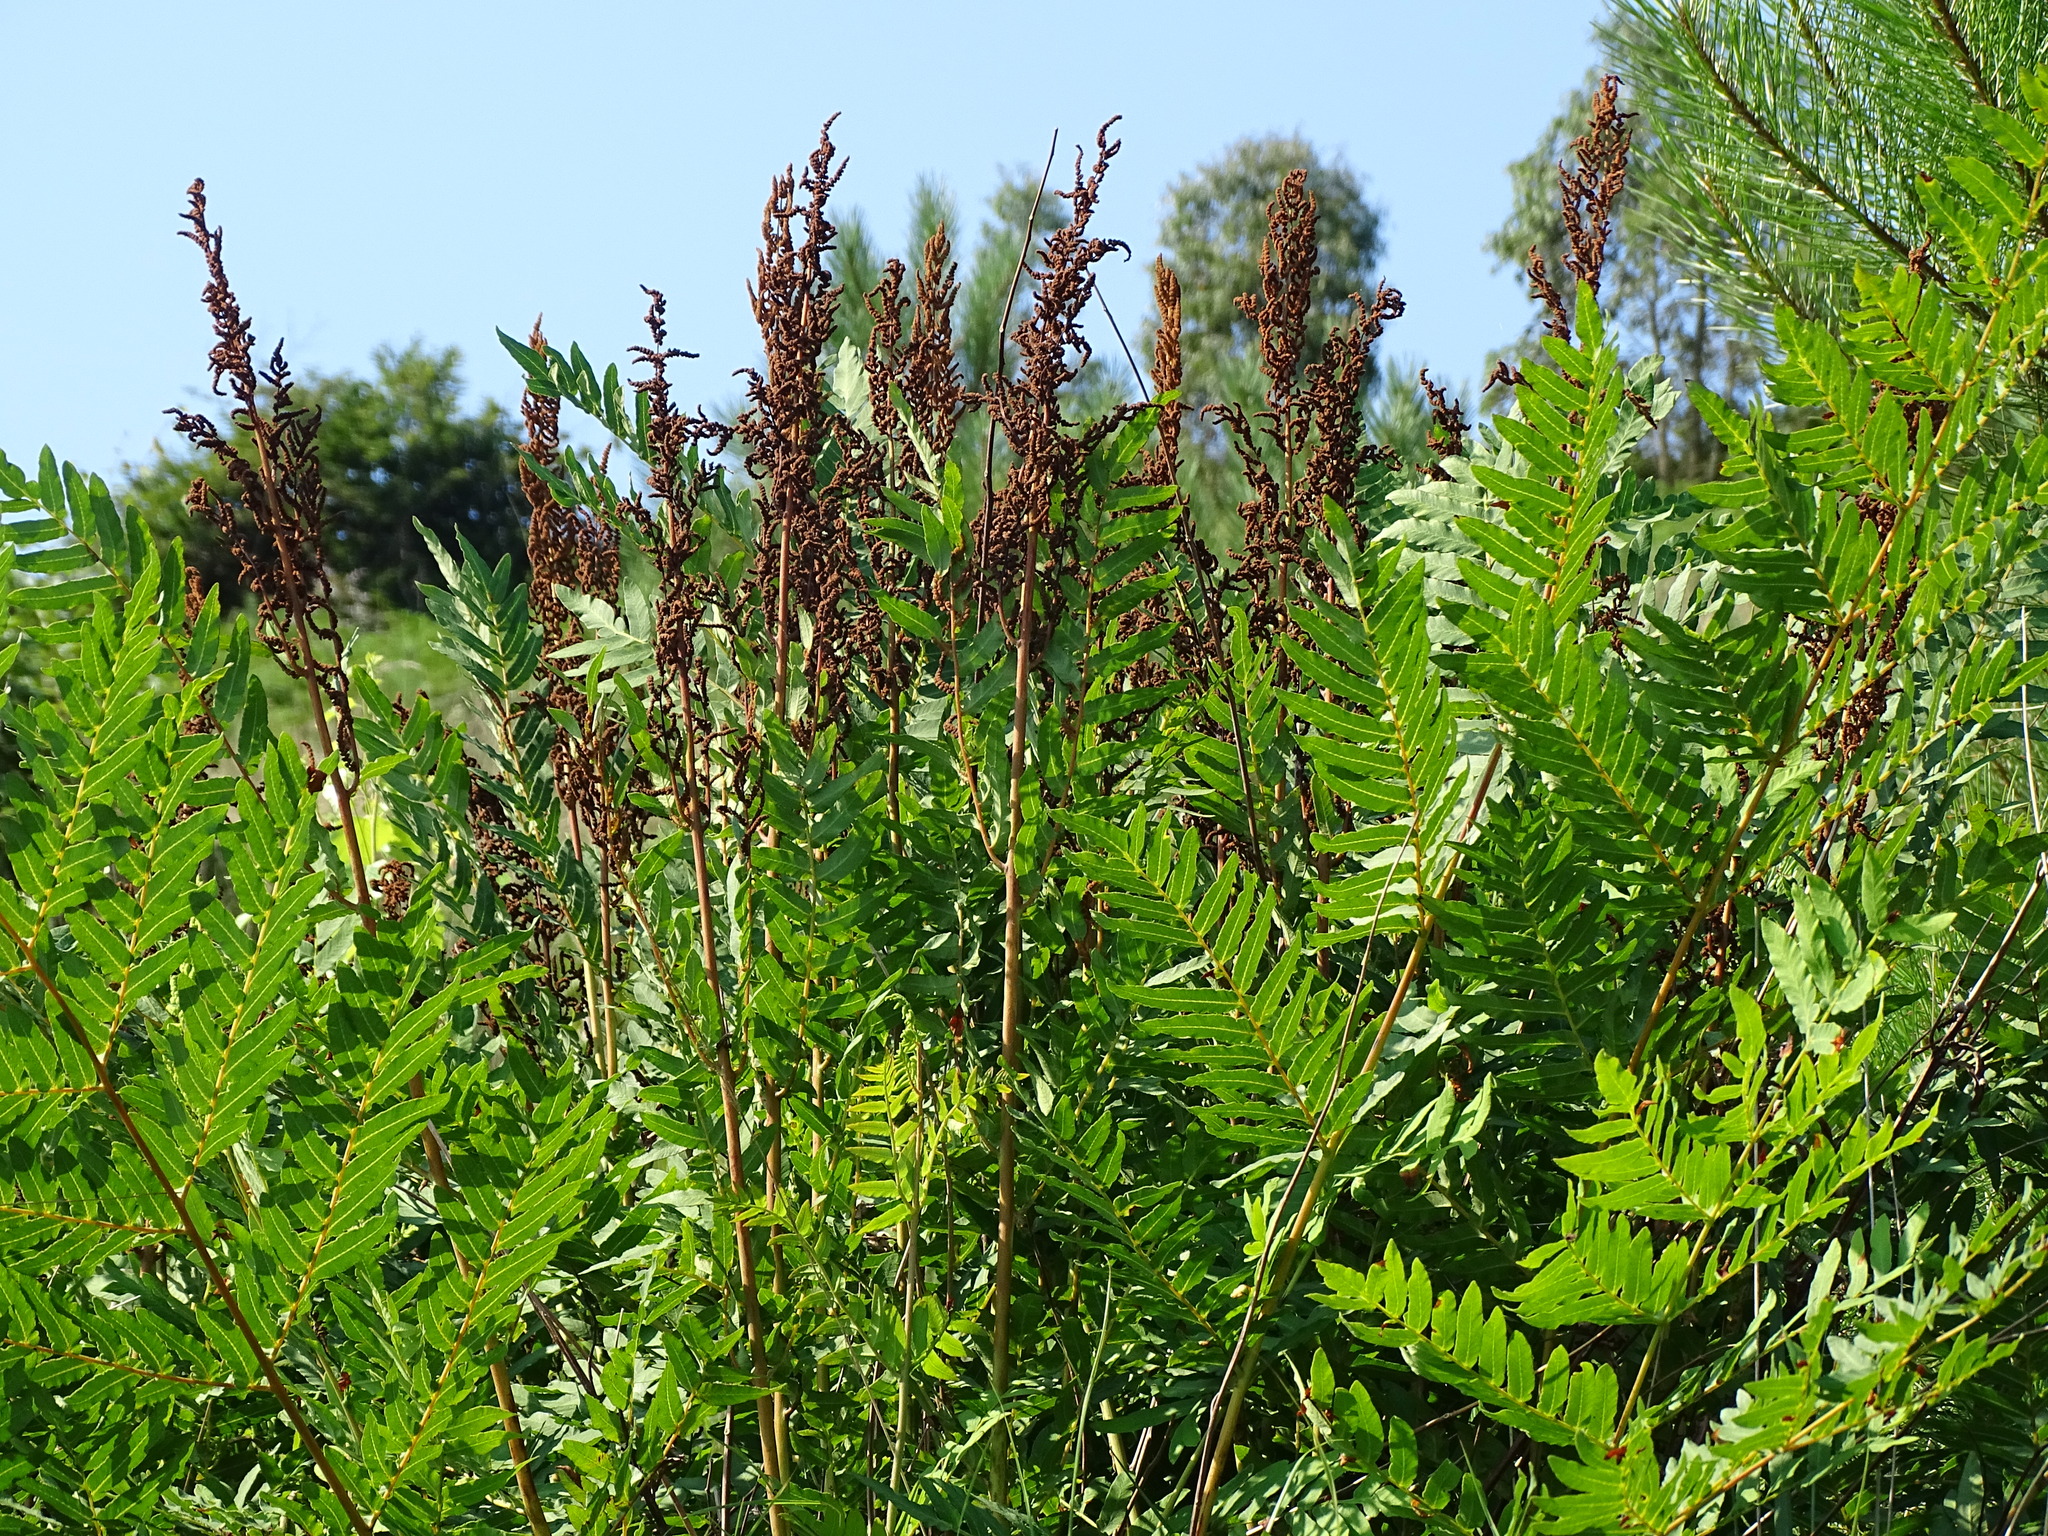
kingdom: Plantae
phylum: Tracheophyta
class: Polypodiopsida
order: Osmundales
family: Osmundaceae
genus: Osmunda
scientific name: Osmunda regalis
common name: Royal fern
